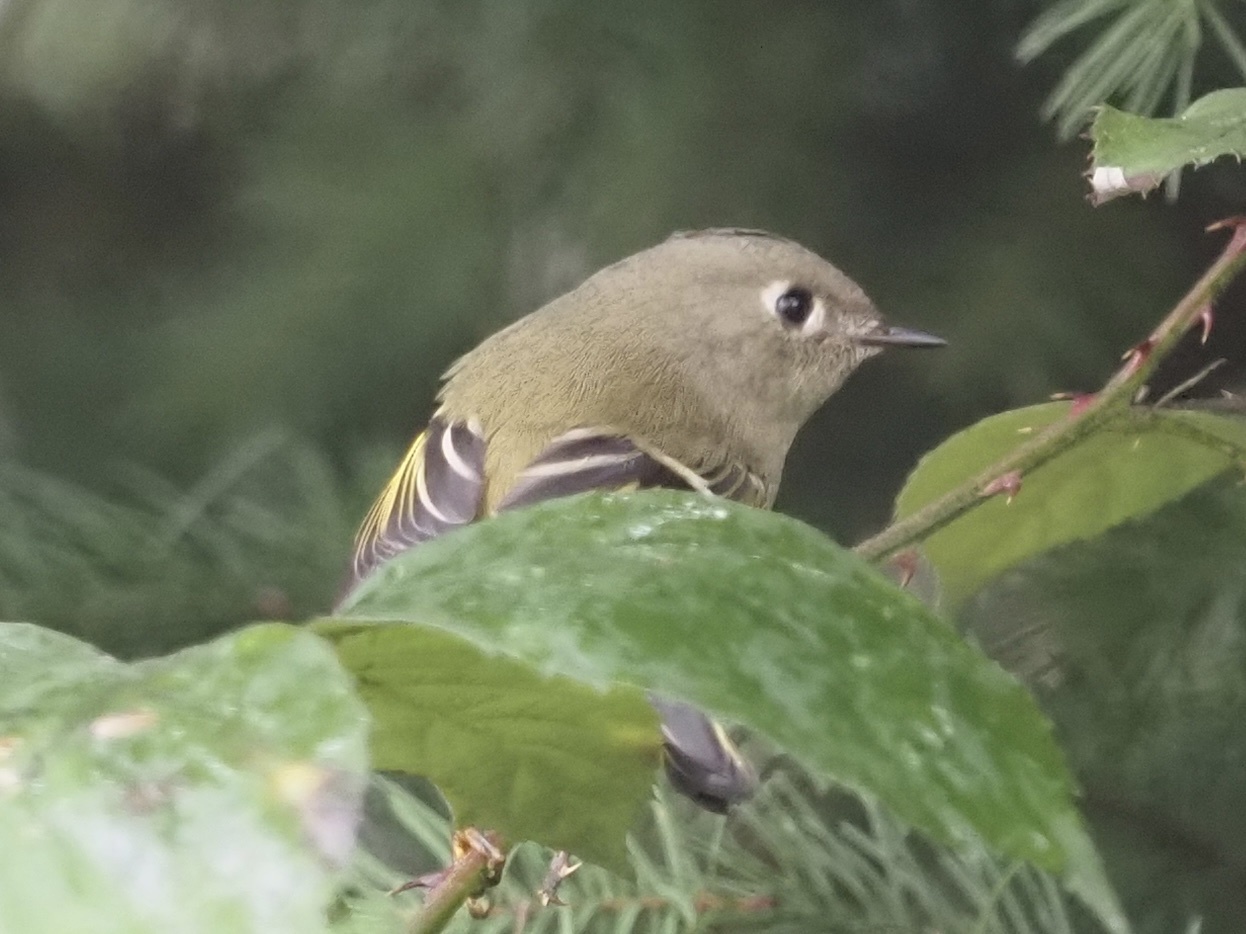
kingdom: Animalia
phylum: Chordata
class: Aves
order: Passeriformes
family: Regulidae
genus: Regulus
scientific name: Regulus calendula
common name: Ruby-crowned kinglet
